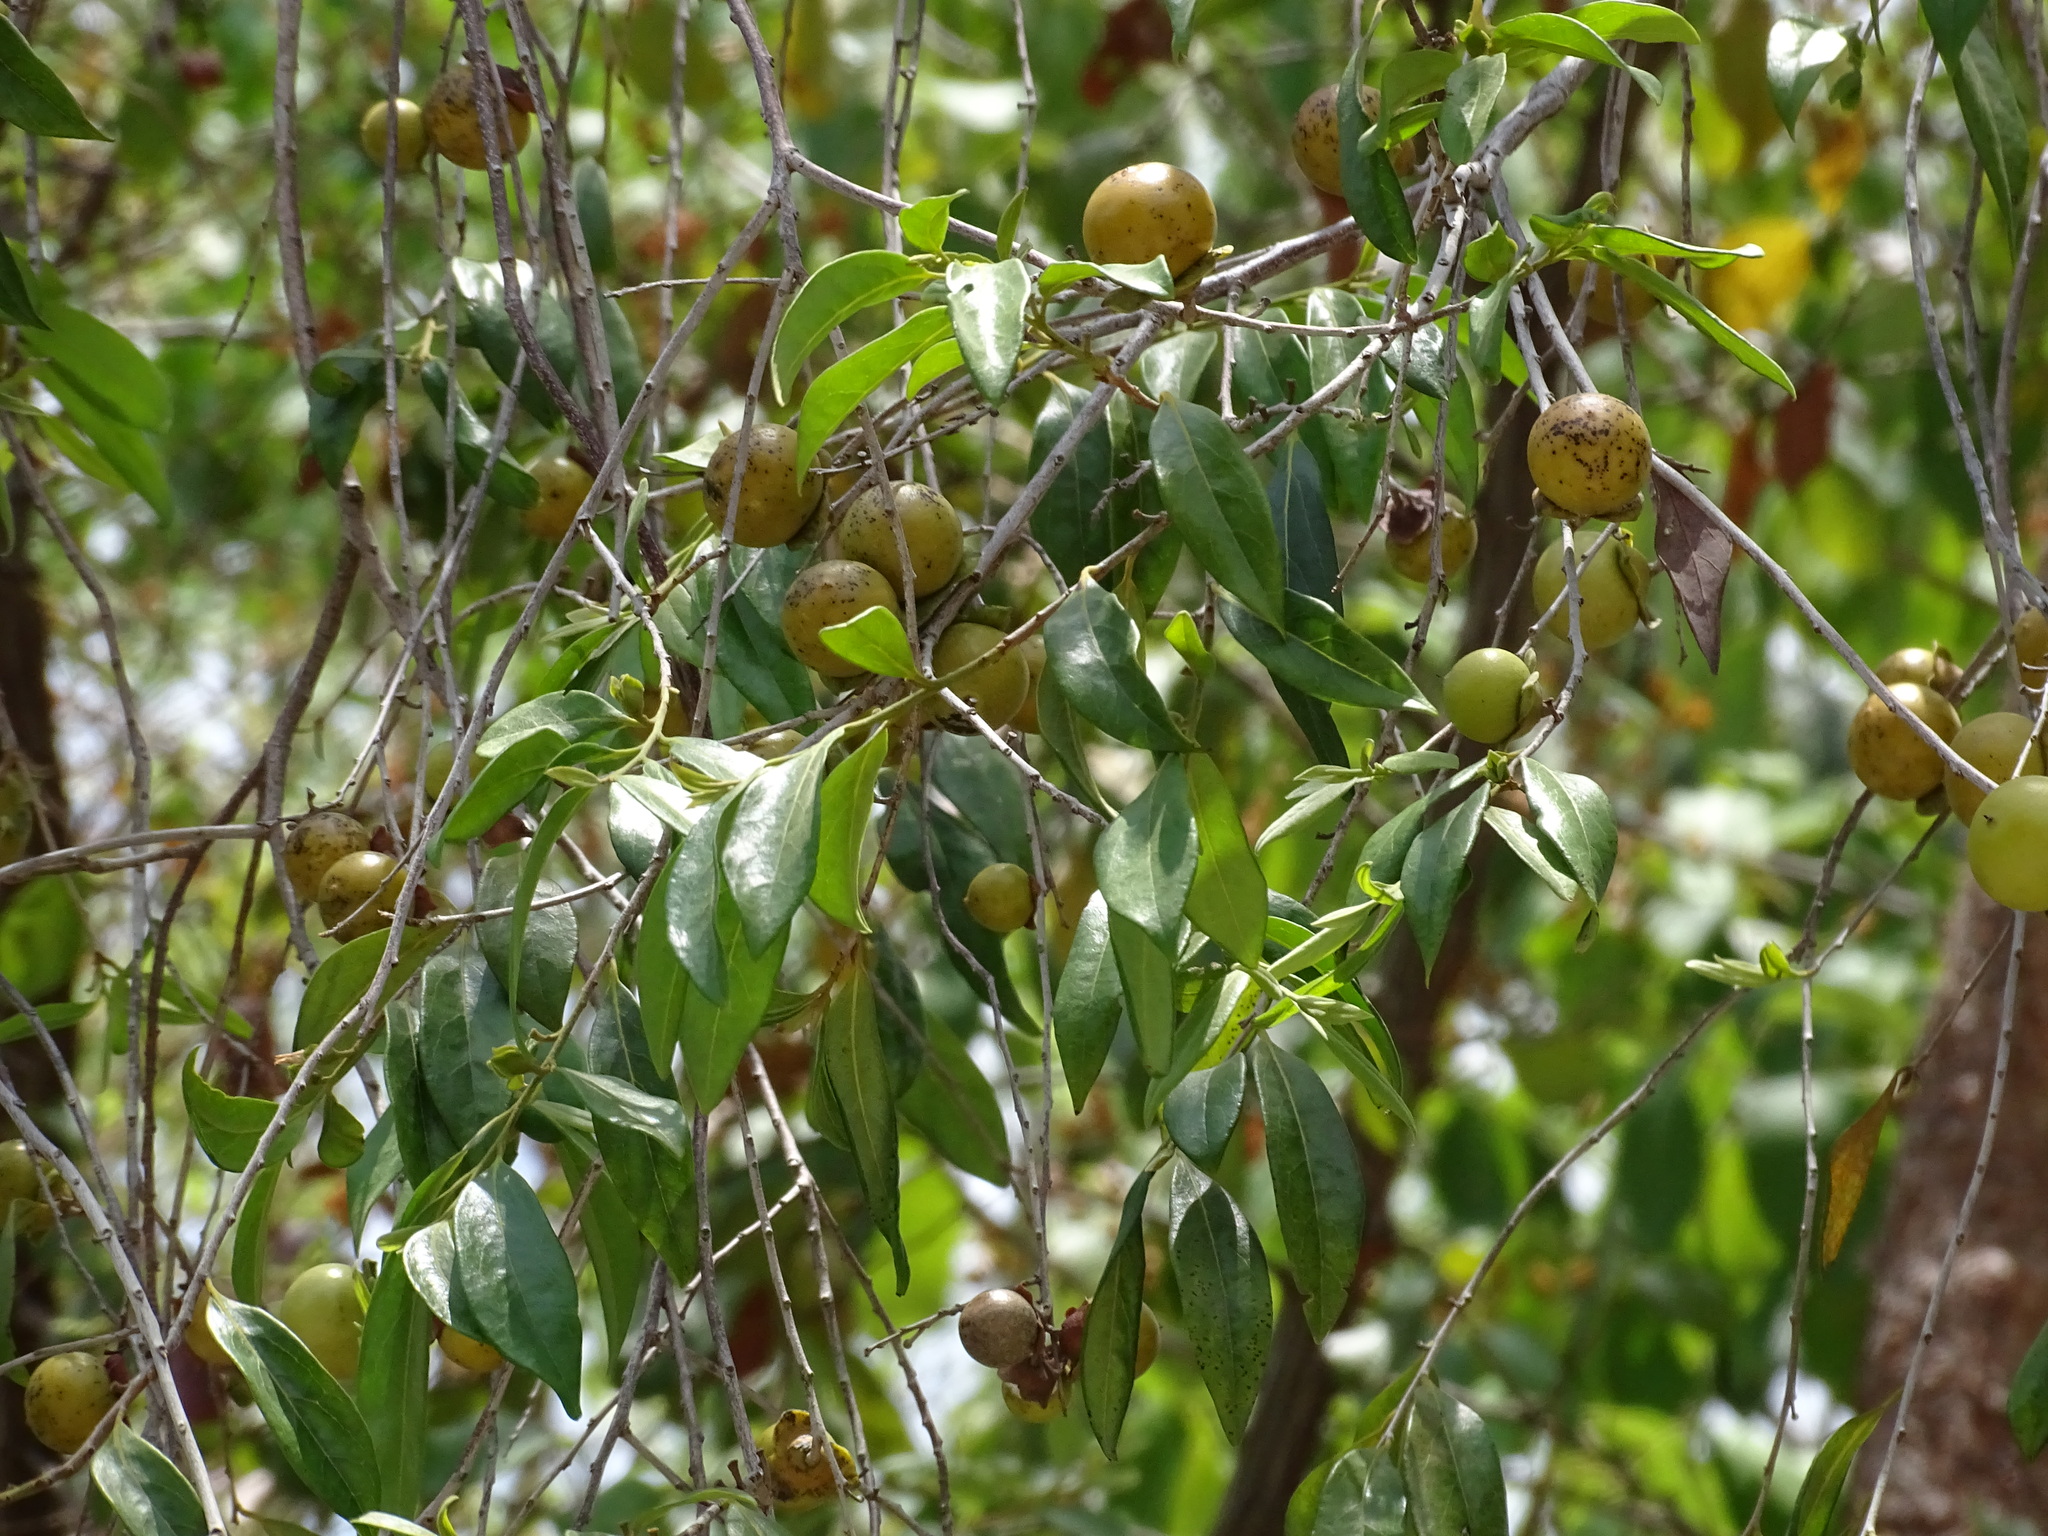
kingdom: Plantae
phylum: Tracheophyta
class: Magnoliopsida
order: Ericales
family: Ebenaceae
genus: Diospyros
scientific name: Diospyros salicifolia
